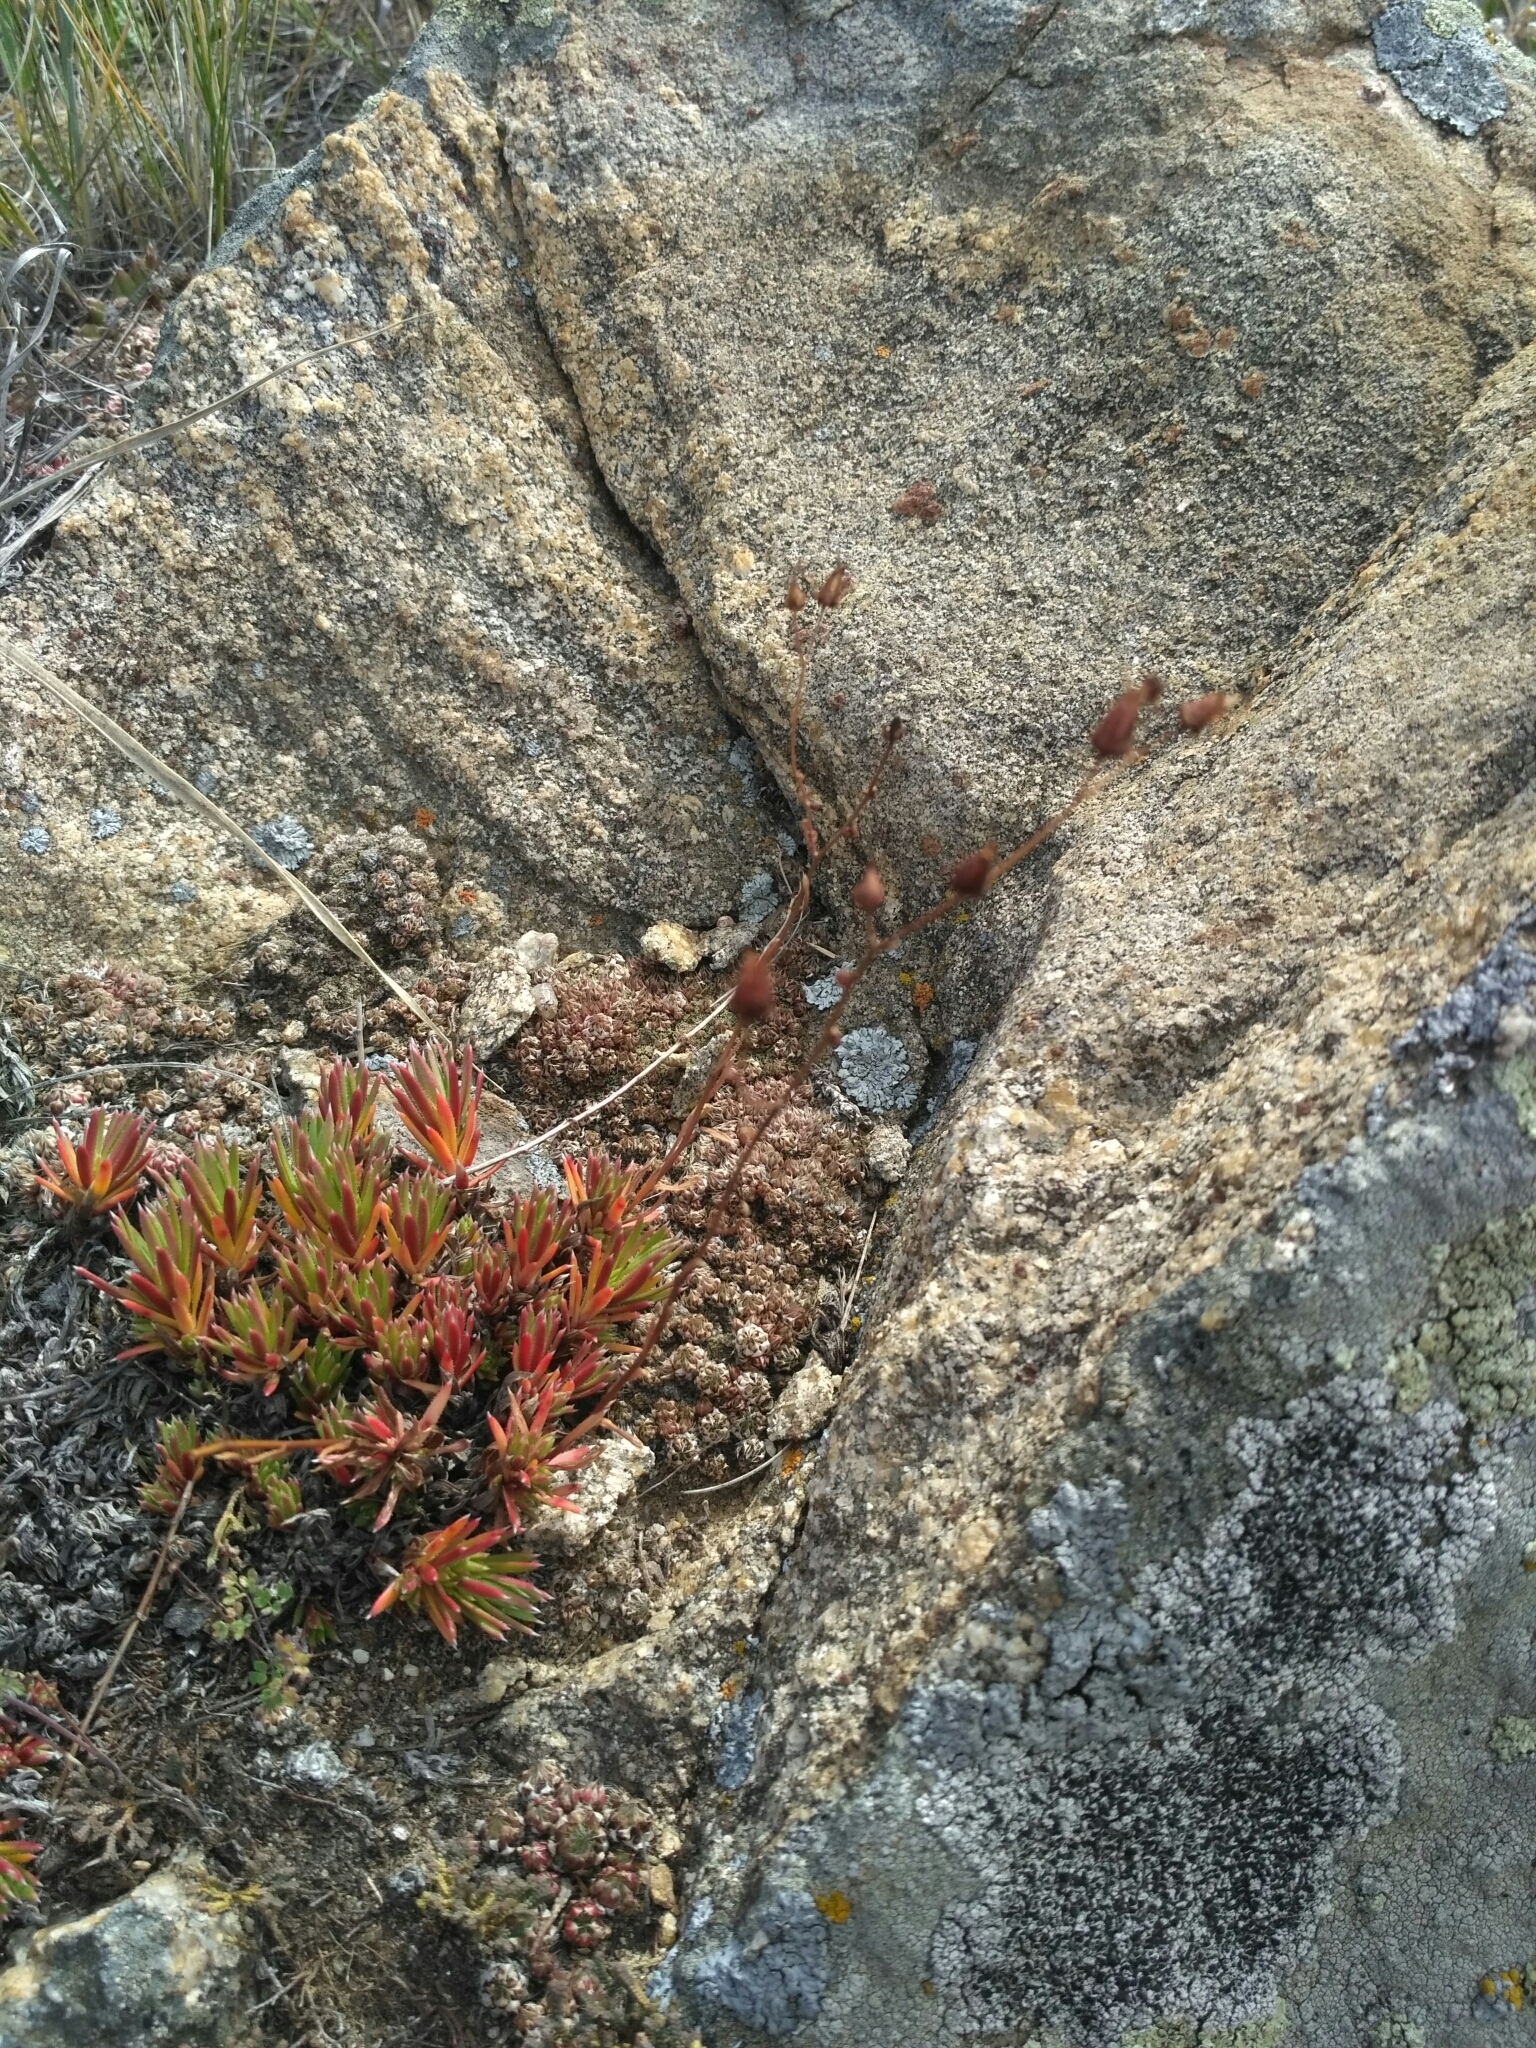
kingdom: Plantae
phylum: Tracheophyta
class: Magnoliopsida
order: Saxifragales
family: Saxifragaceae
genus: Saxifraga
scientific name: Saxifraga
